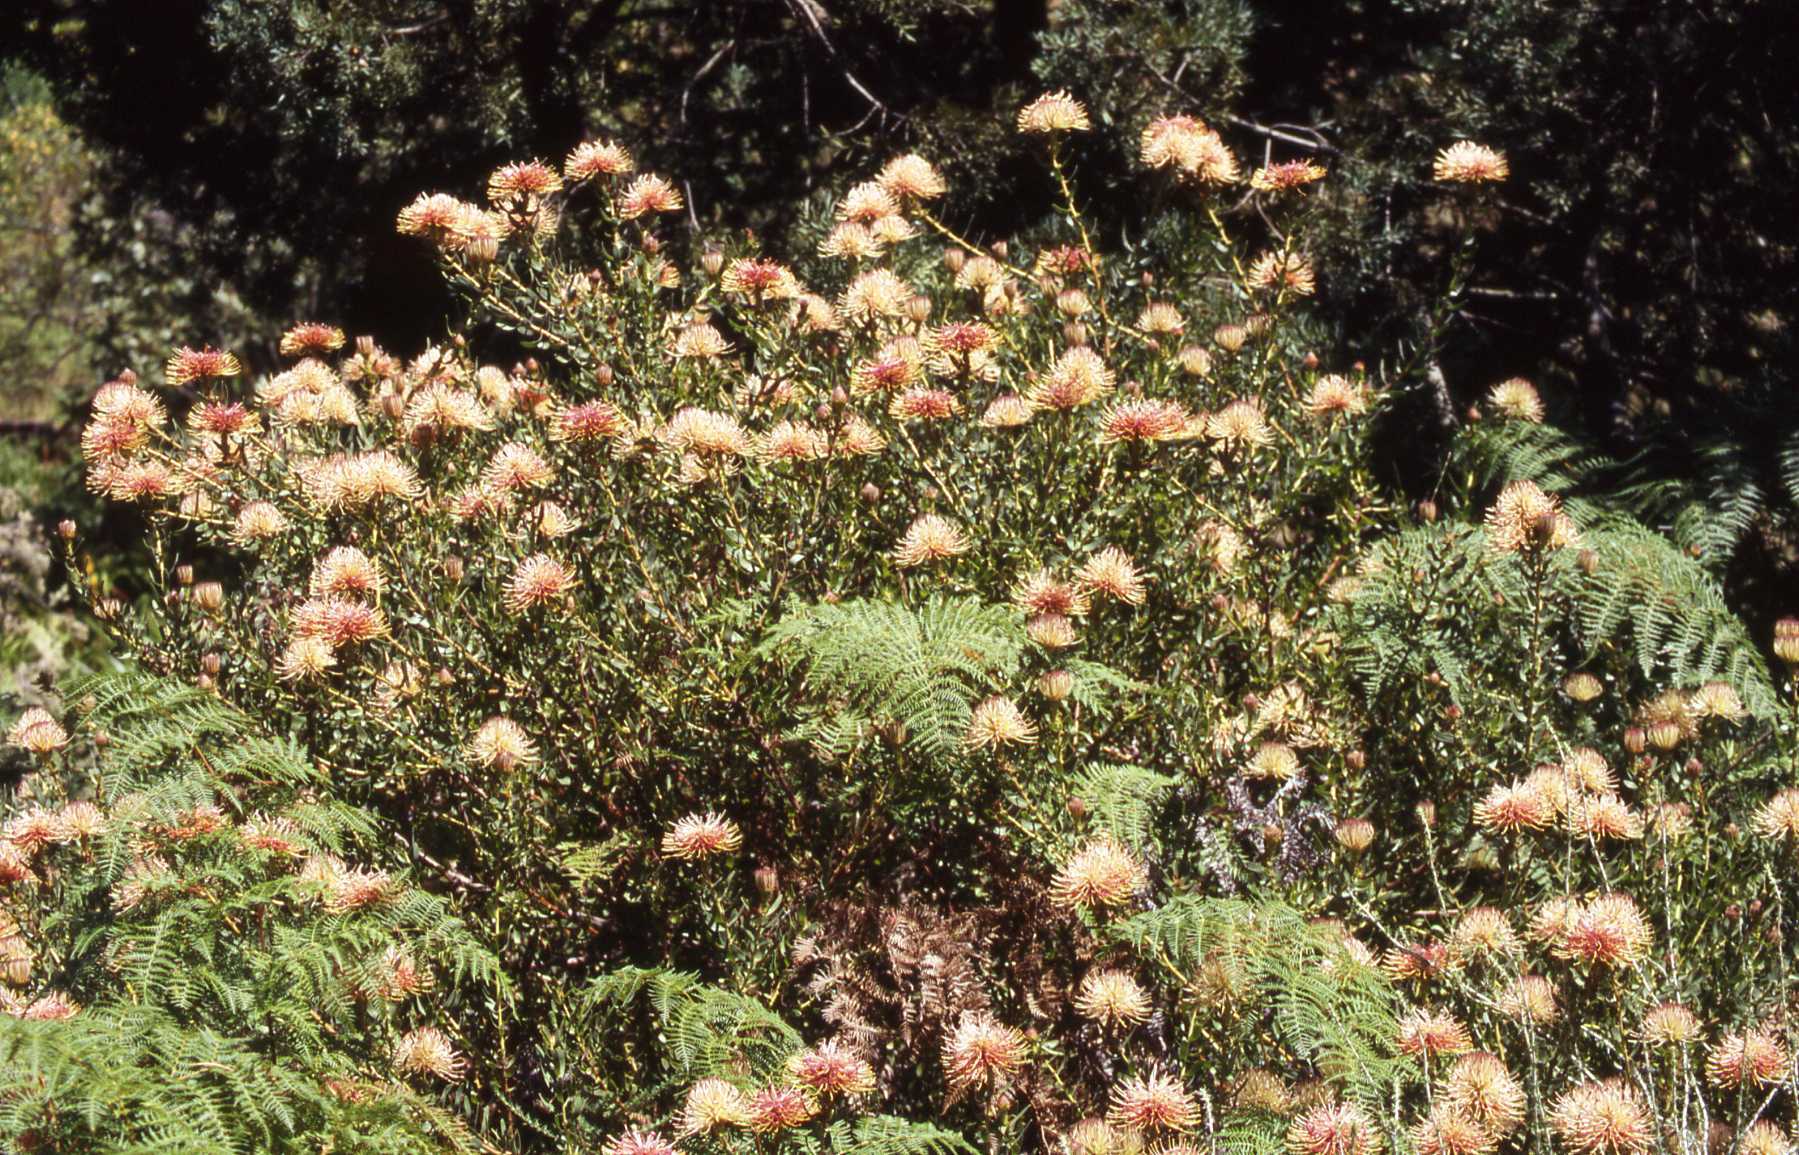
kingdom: Plantae
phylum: Tracheophyta
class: Magnoliopsida
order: Proteales
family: Proteaceae
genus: Leucospermum
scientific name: Leucospermum tottum
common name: Ribbon pincushion
